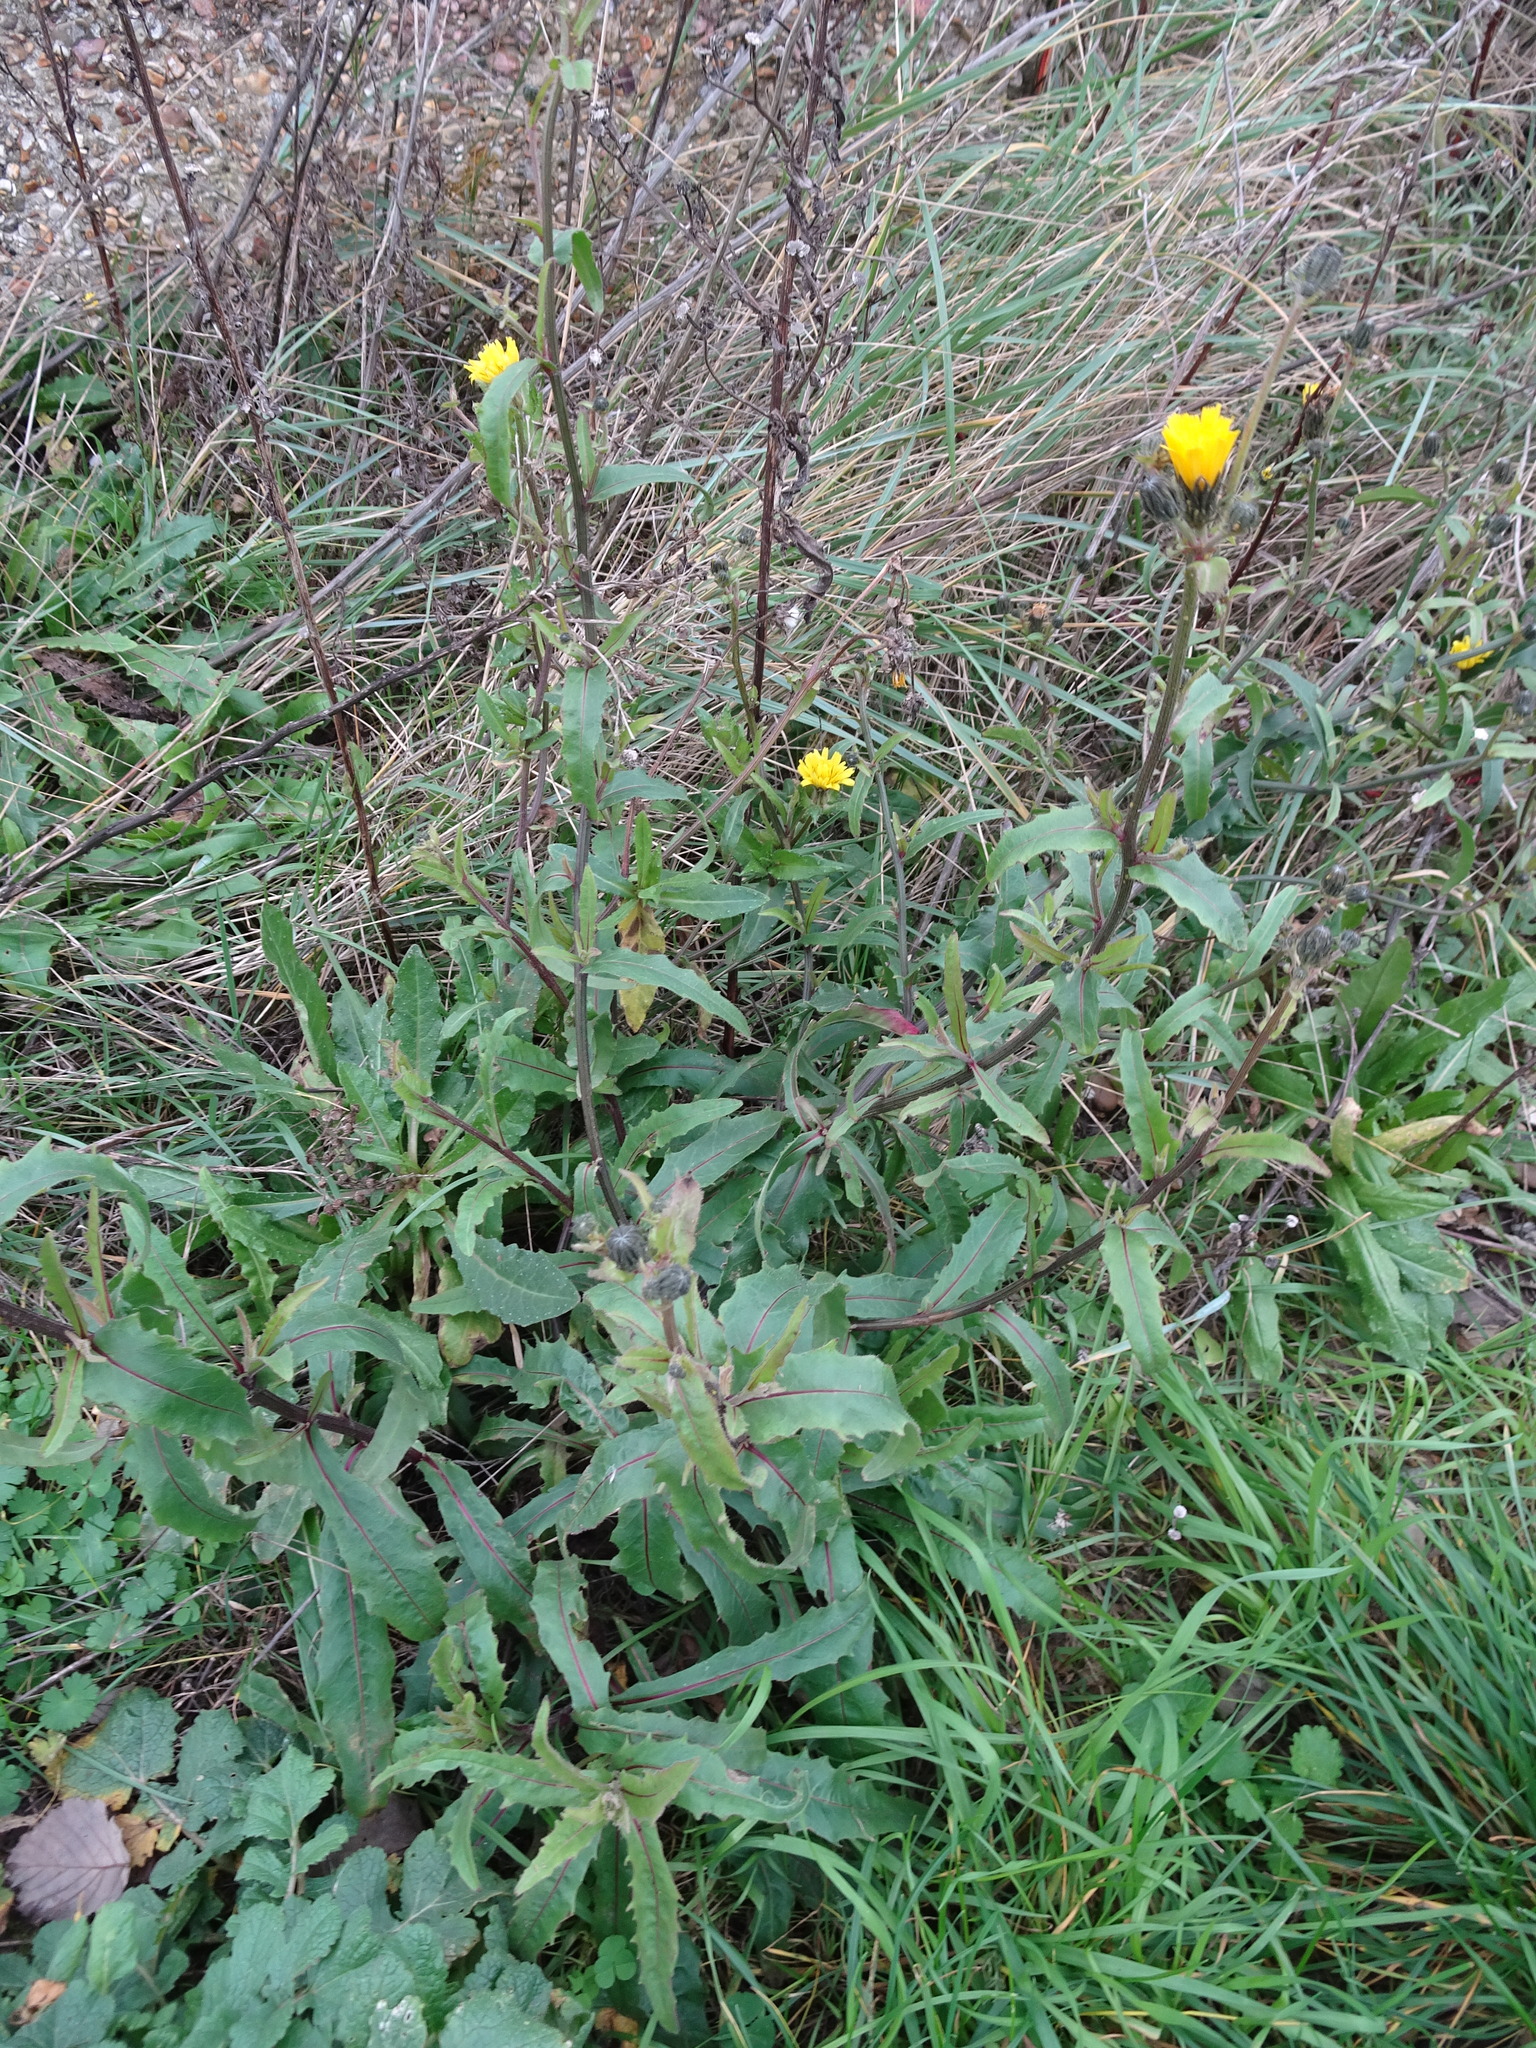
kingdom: Plantae
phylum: Tracheophyta
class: Magnoliopsida
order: Asterales
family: Asteraceae
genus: Picris
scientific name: Picris hieracioides
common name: Hawkweed oxtongue
